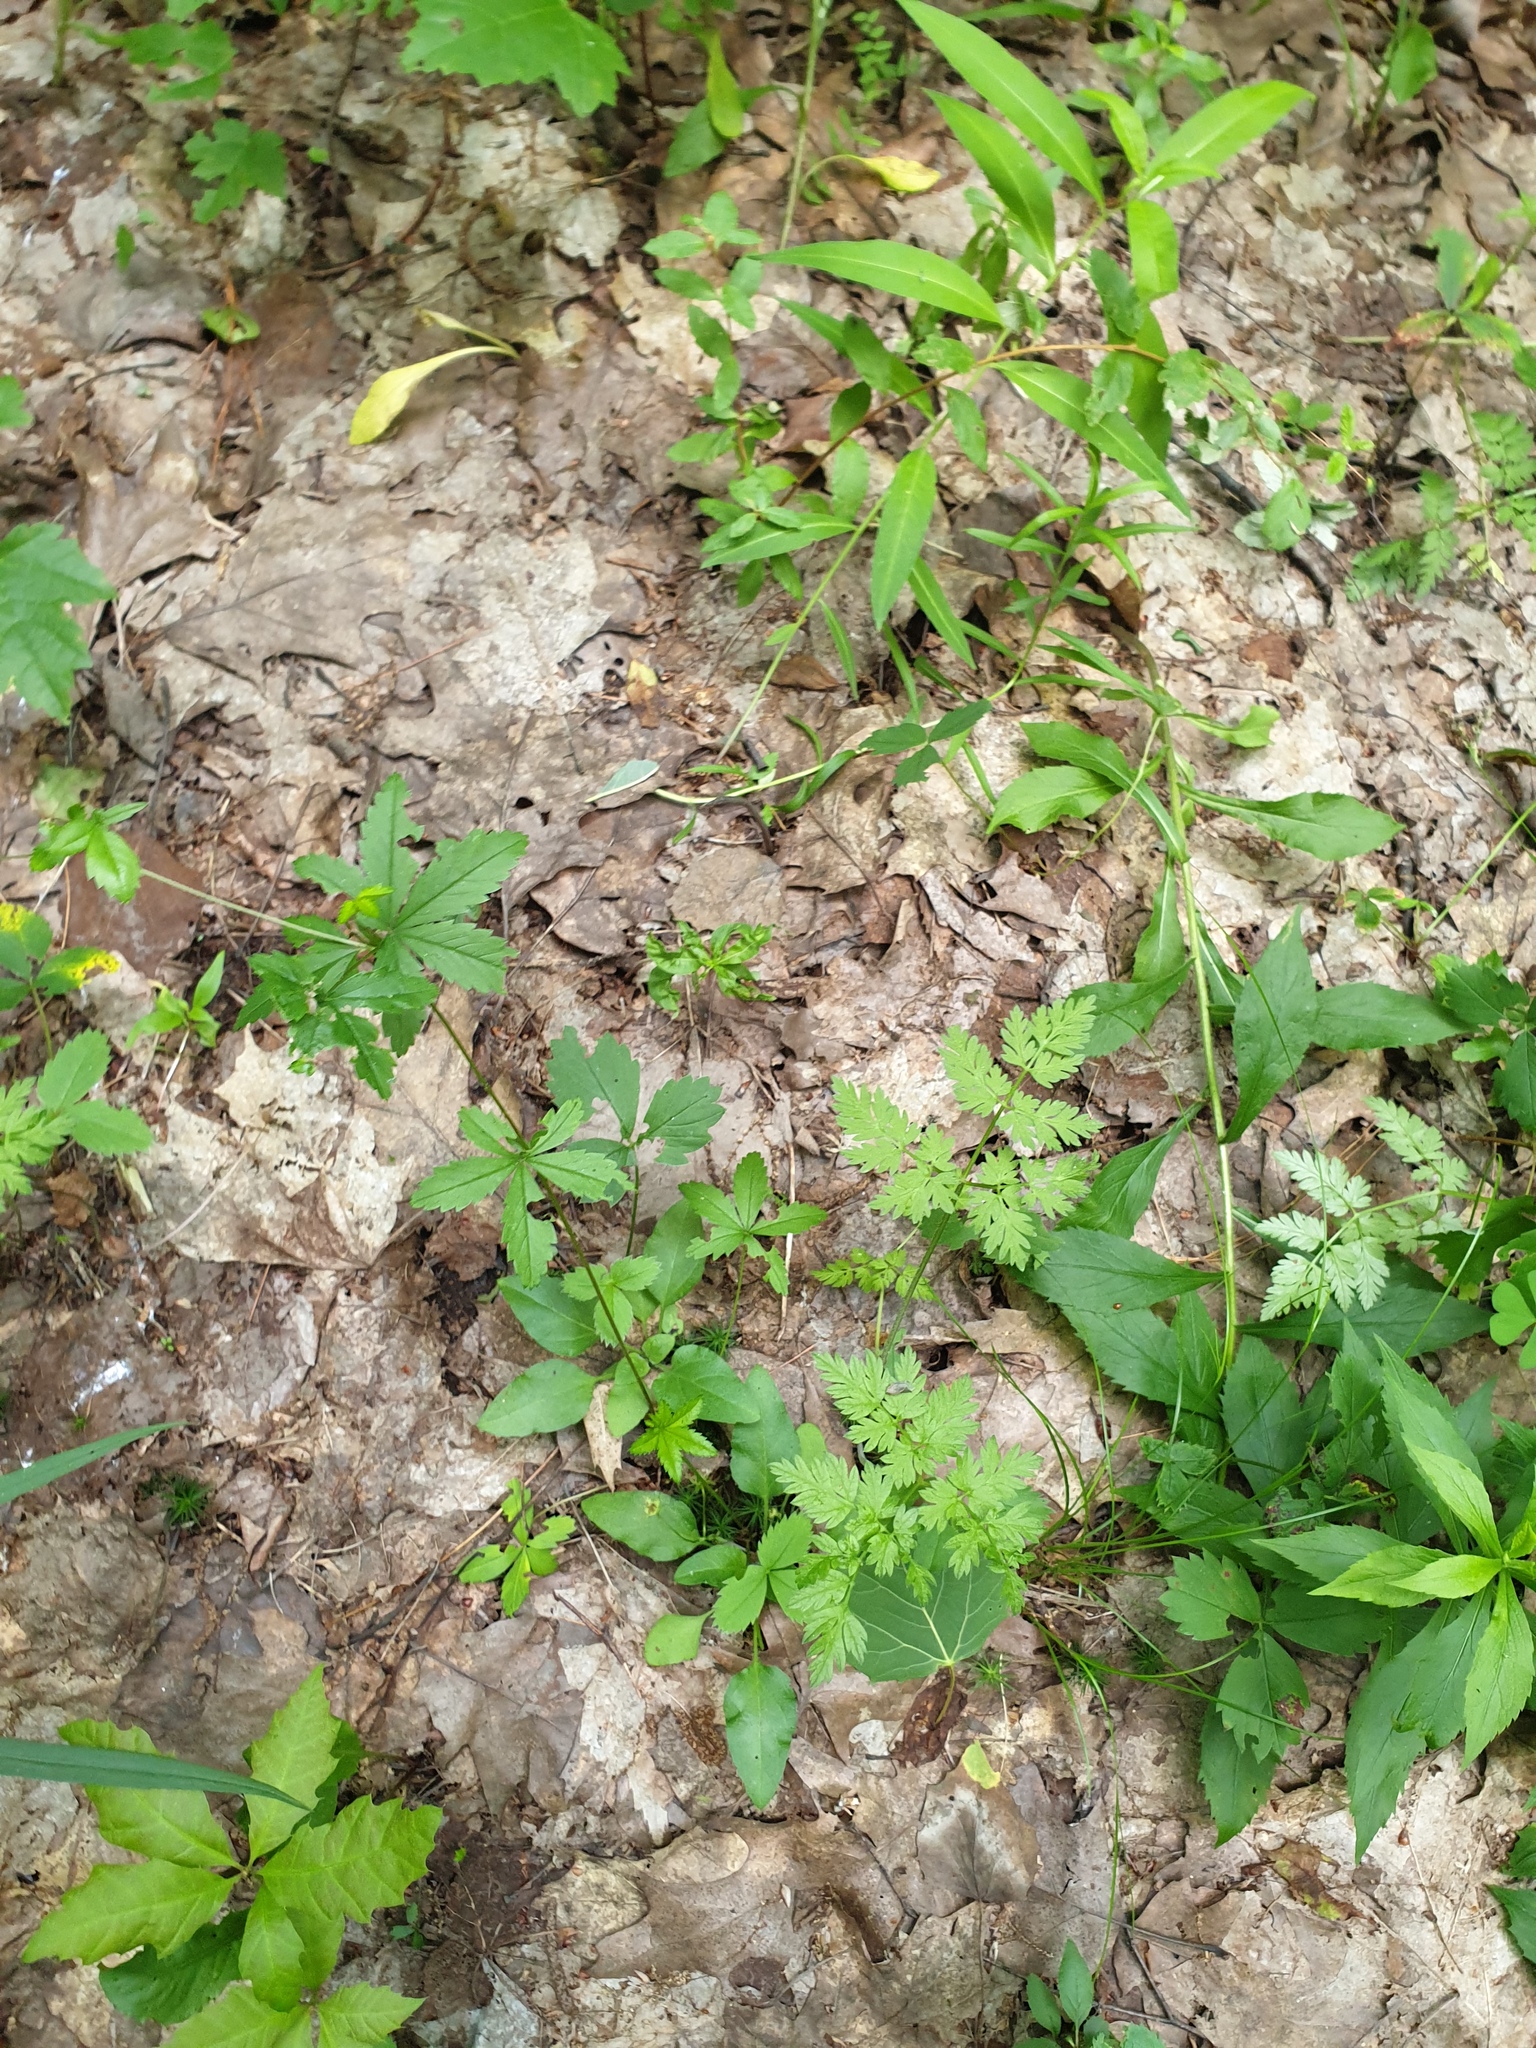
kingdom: Plantae
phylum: Tracheophyta
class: Magnoliopsida
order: Rosales
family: Rosaceae
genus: Potentilla
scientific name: Potentilla simplex
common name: Old field cinquefoil
